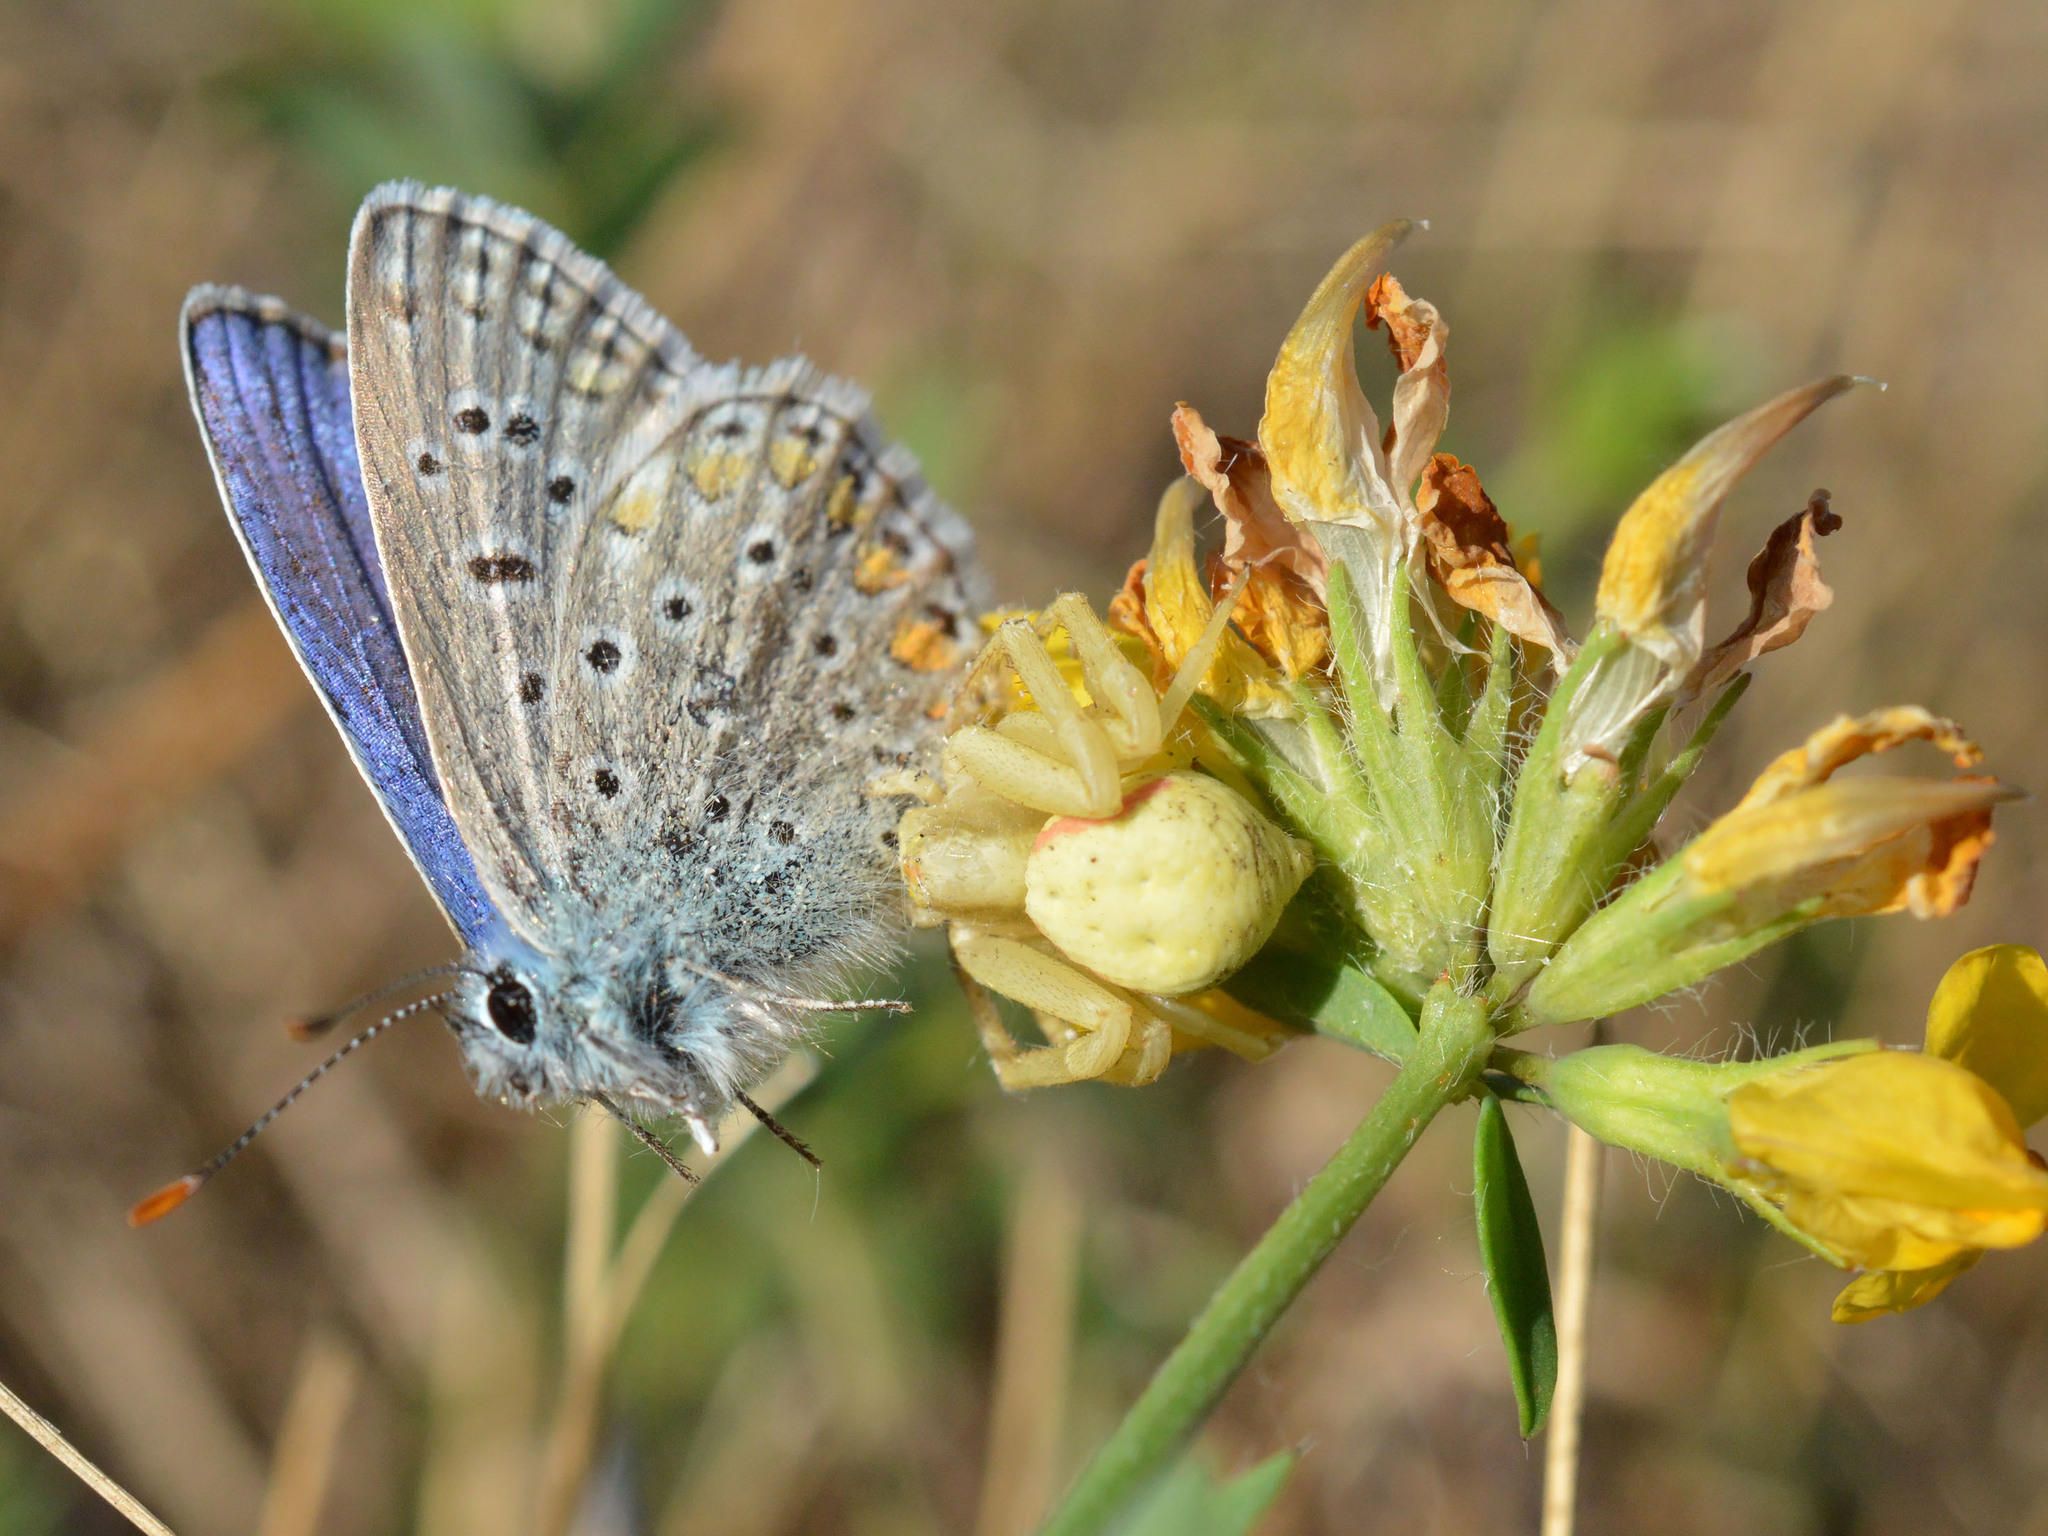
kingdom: Animalia
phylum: Arthropoda
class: Arachnida
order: Araneae
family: Thomisidae
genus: Misumena
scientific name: Misumena vatia
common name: Goldenrod crab spider
